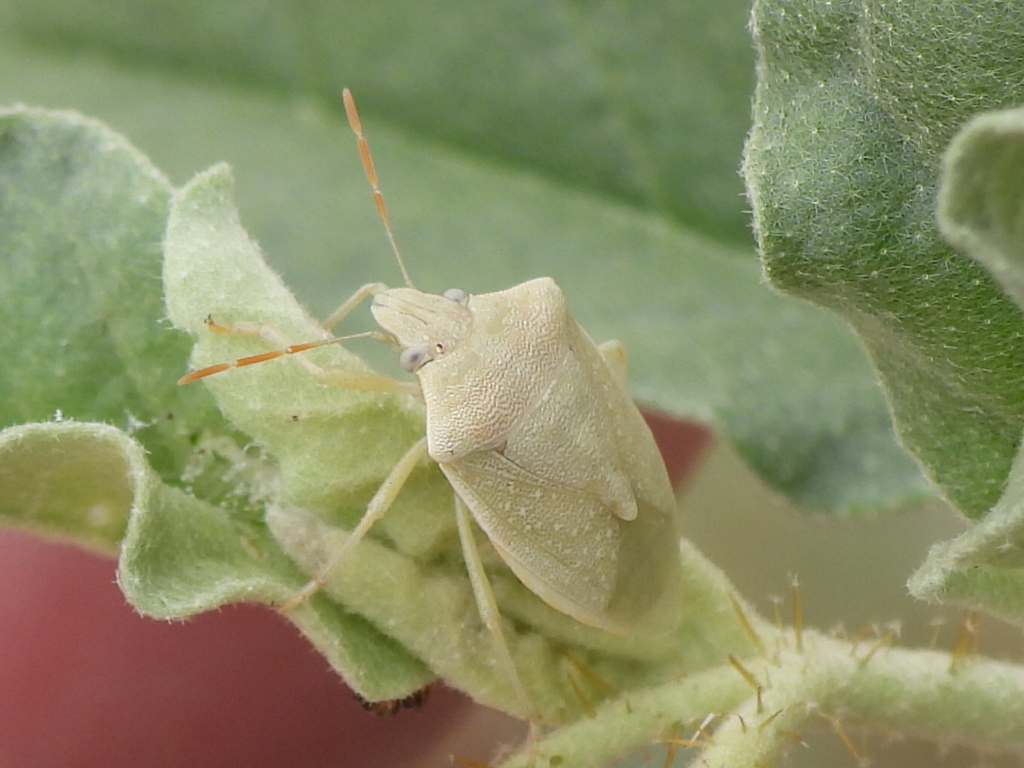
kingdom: Animalia
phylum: Arthropoda
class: Insecta
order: Hemiptera
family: Pentatomidae
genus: Thyanta
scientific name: Thyanta accerra
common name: Stink bug
